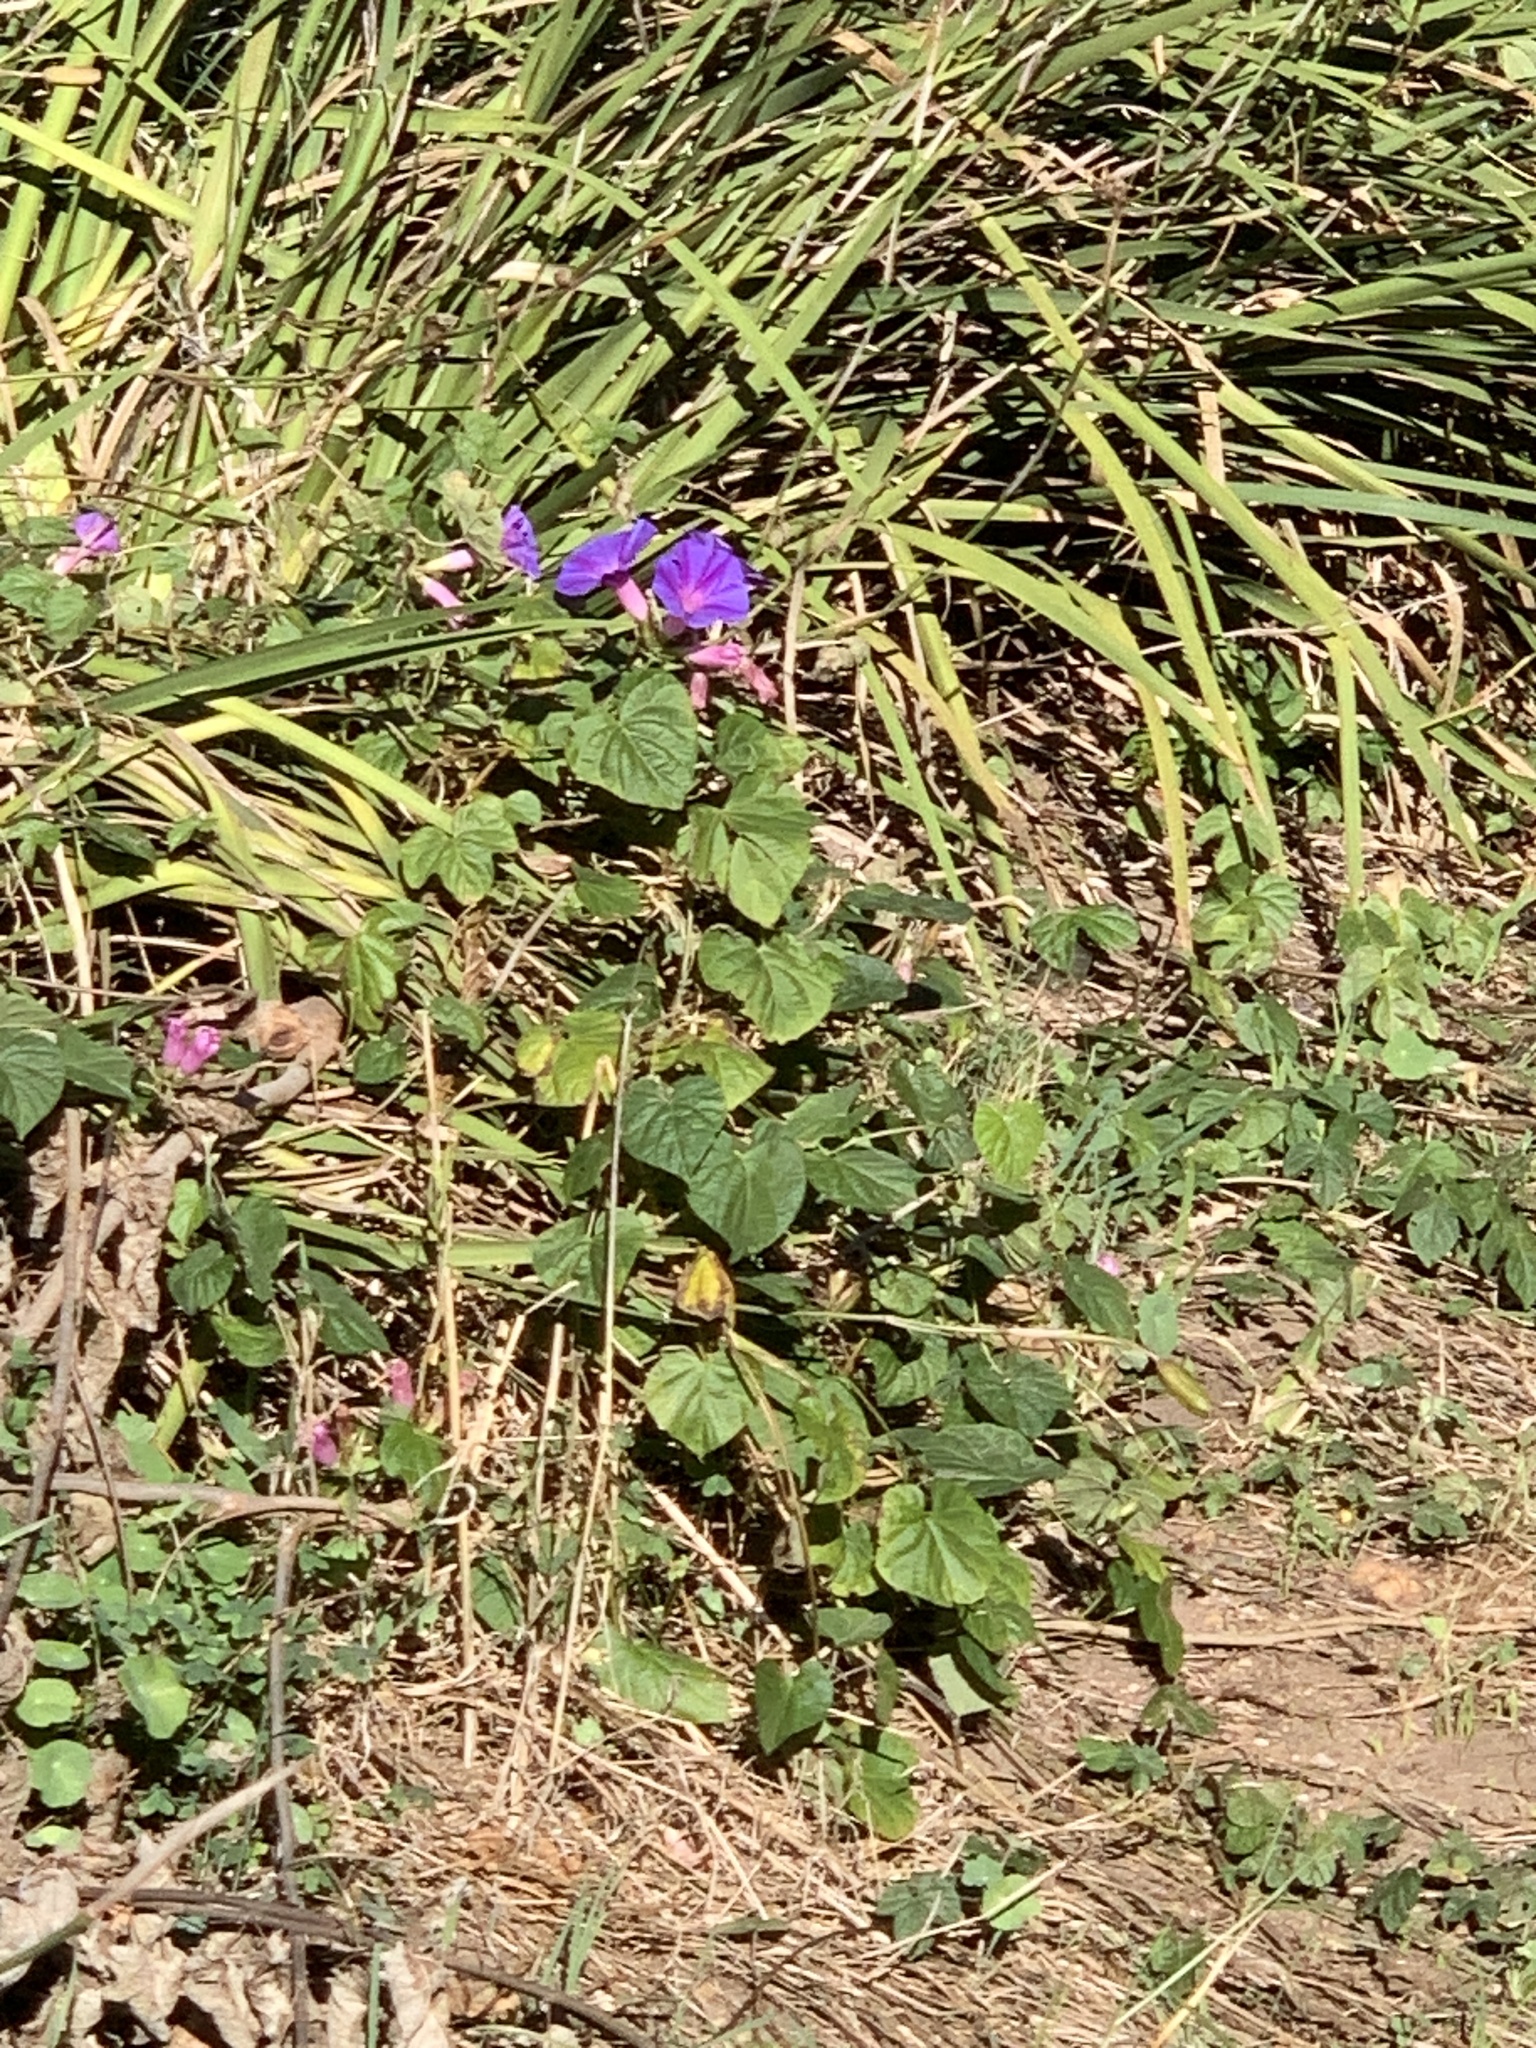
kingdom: Plantae
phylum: Tracheophyta
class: Magnoliopsida
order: Solanales
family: Convolvulaceae
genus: Ipomoea
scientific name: Ipomoea indica
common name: Blue dawnflower
